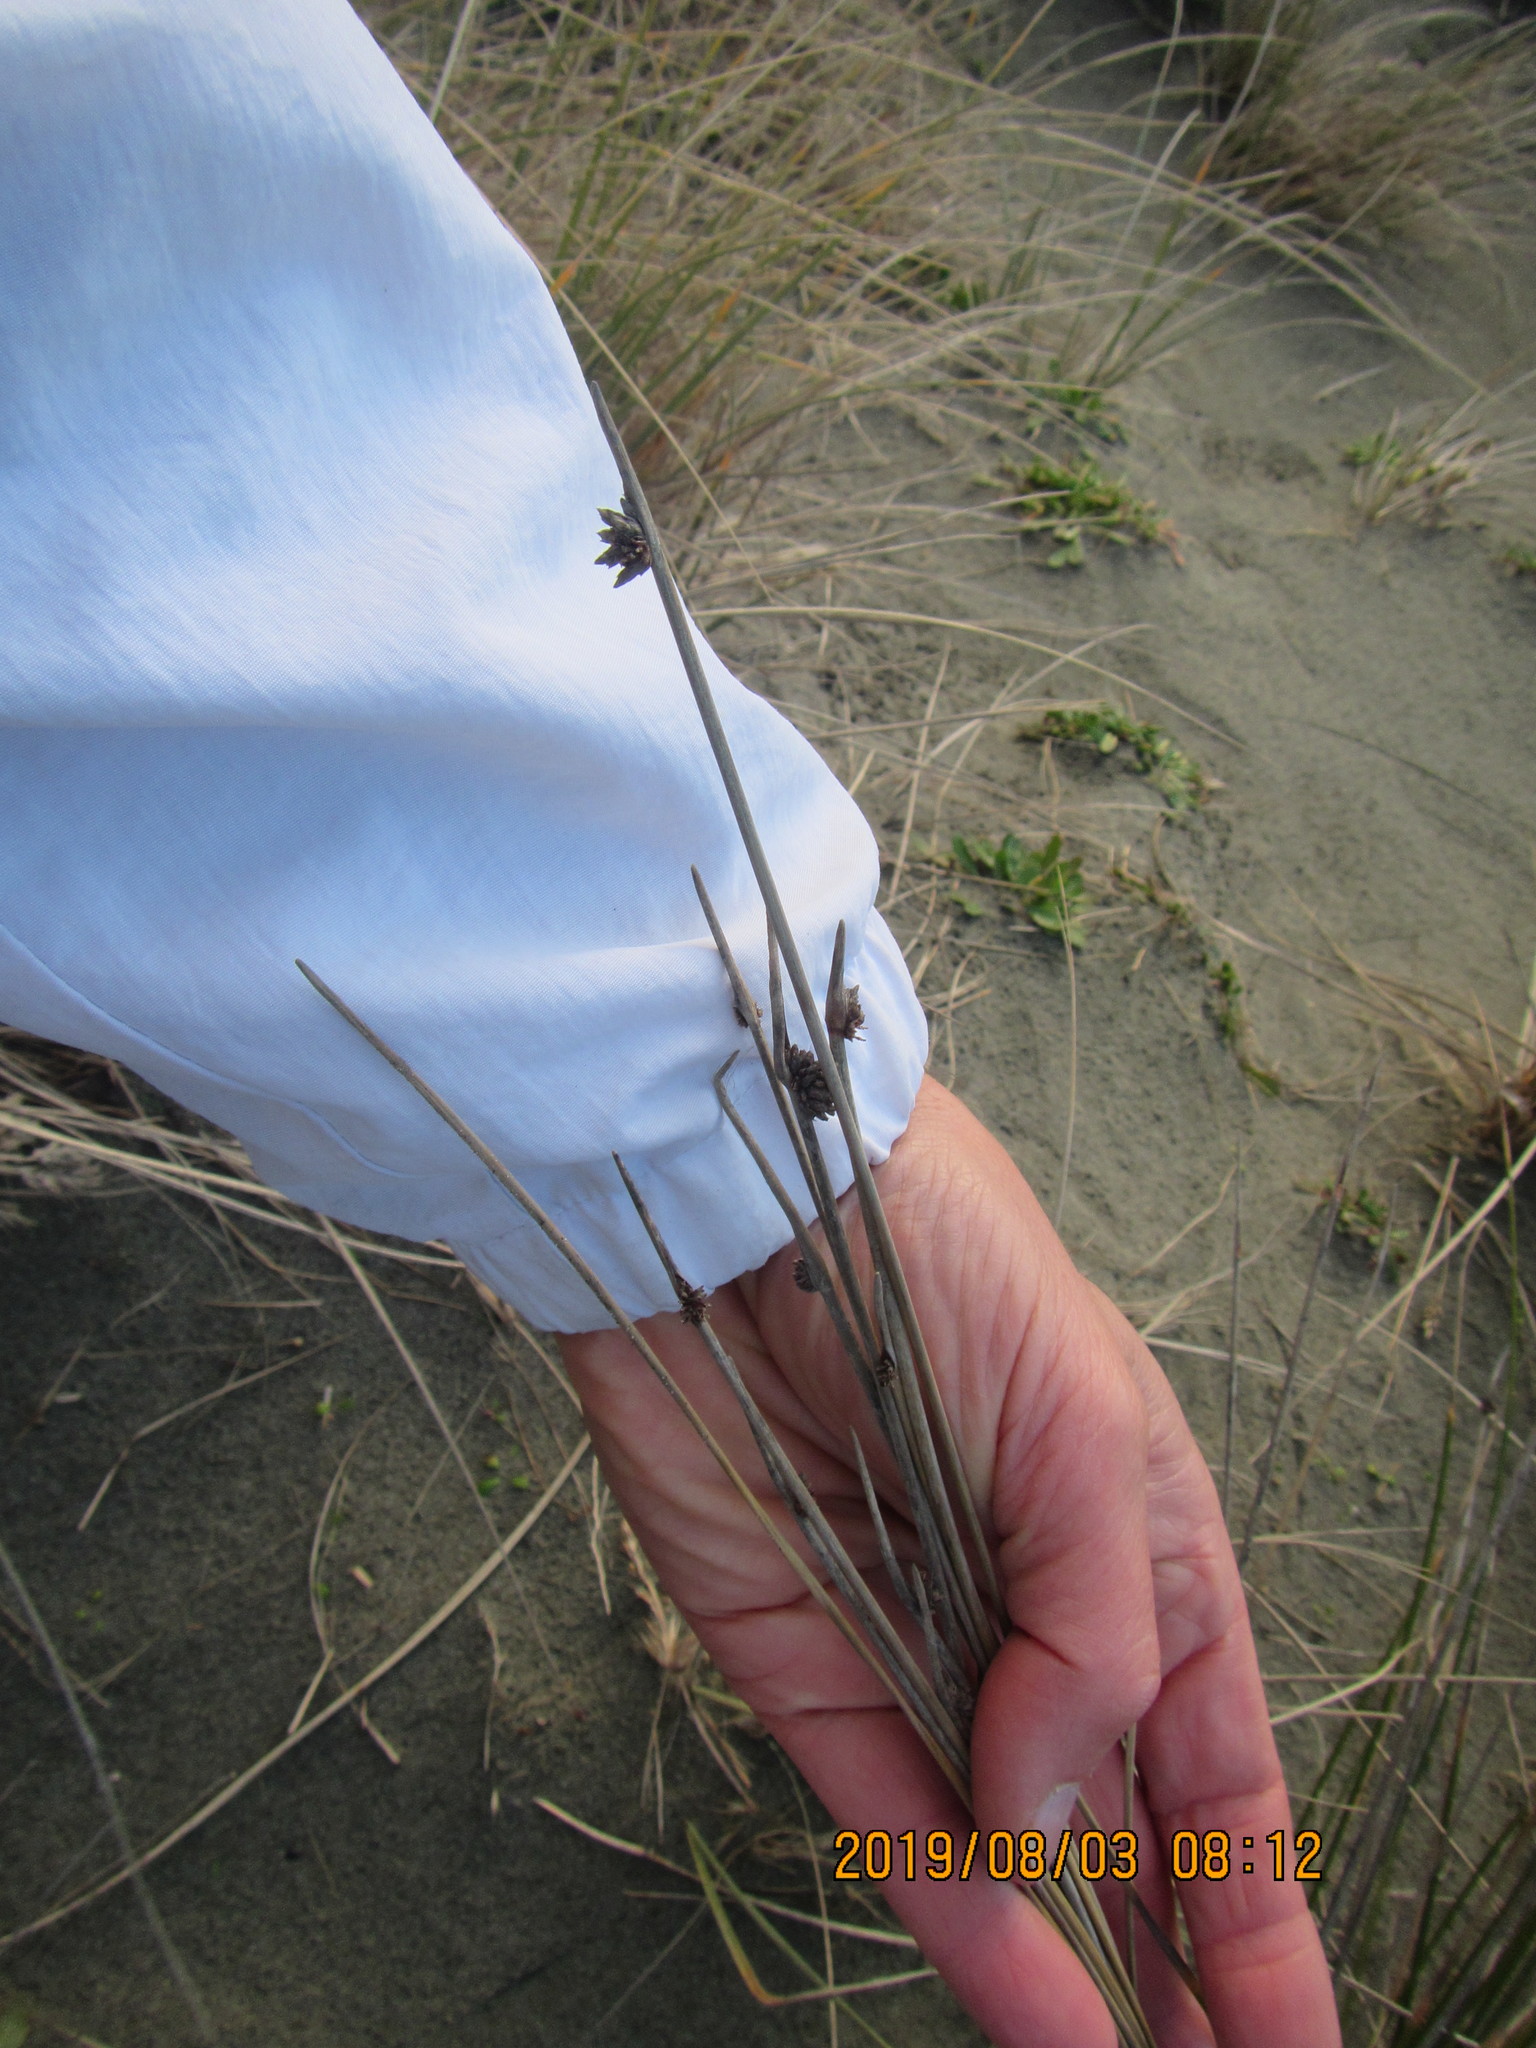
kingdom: Plantae
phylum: Tracheophyta
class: Liliopsida
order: Poales
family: Cyperaceae
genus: Ficinia
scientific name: Ficinia nodosa
